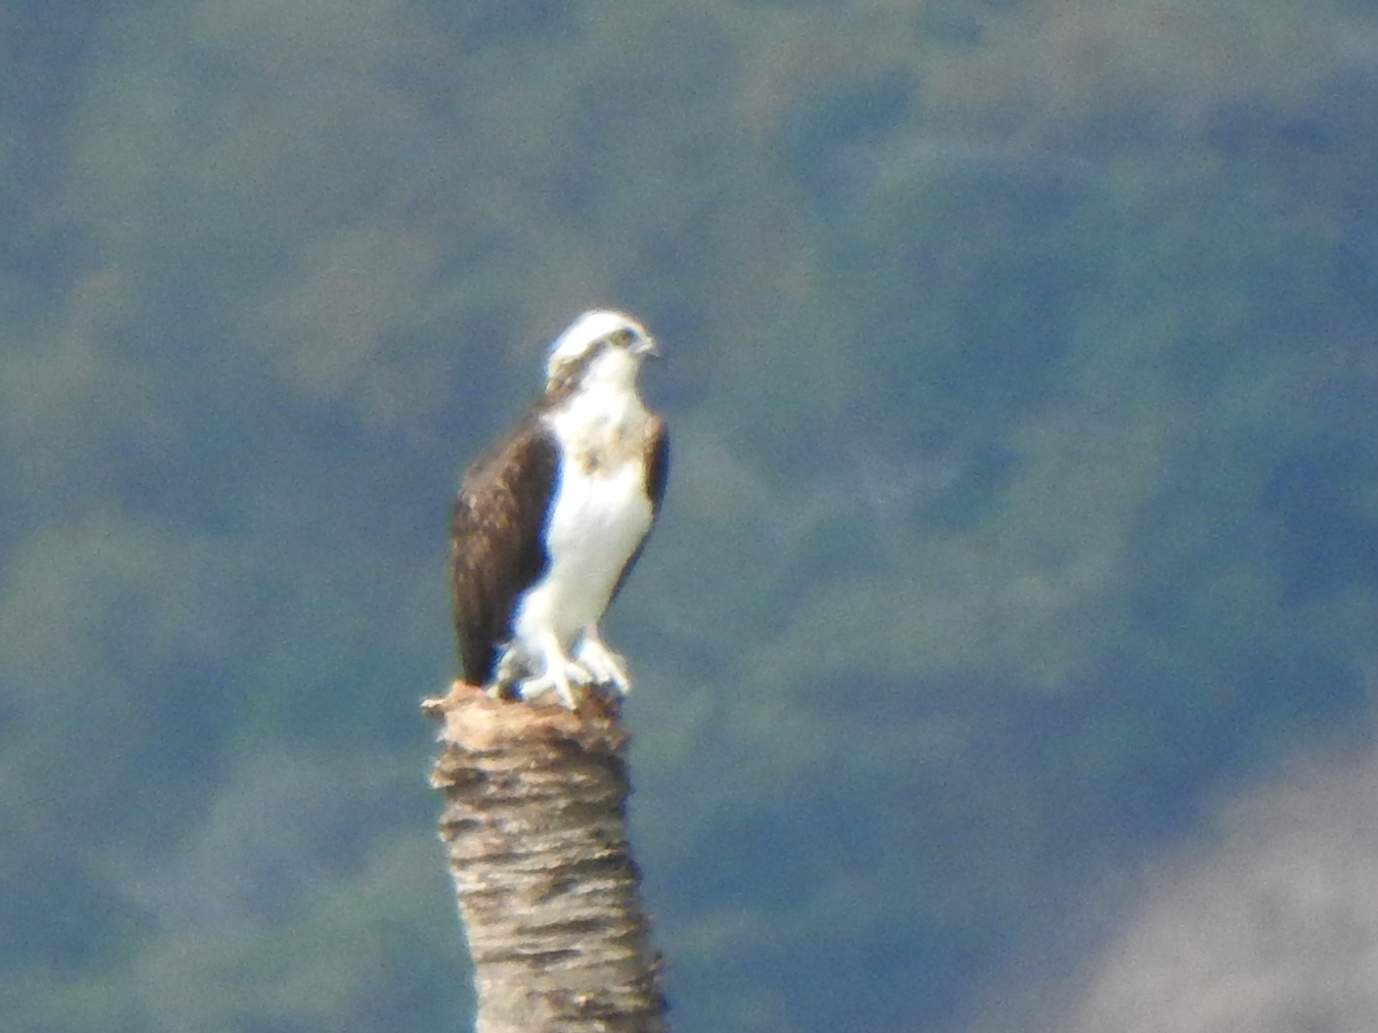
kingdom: Animalia
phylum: Chordata
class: Aves
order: Accipitriformes
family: Pandionidae
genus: Pandion
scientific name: Pandion haliaetus
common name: Osprey
